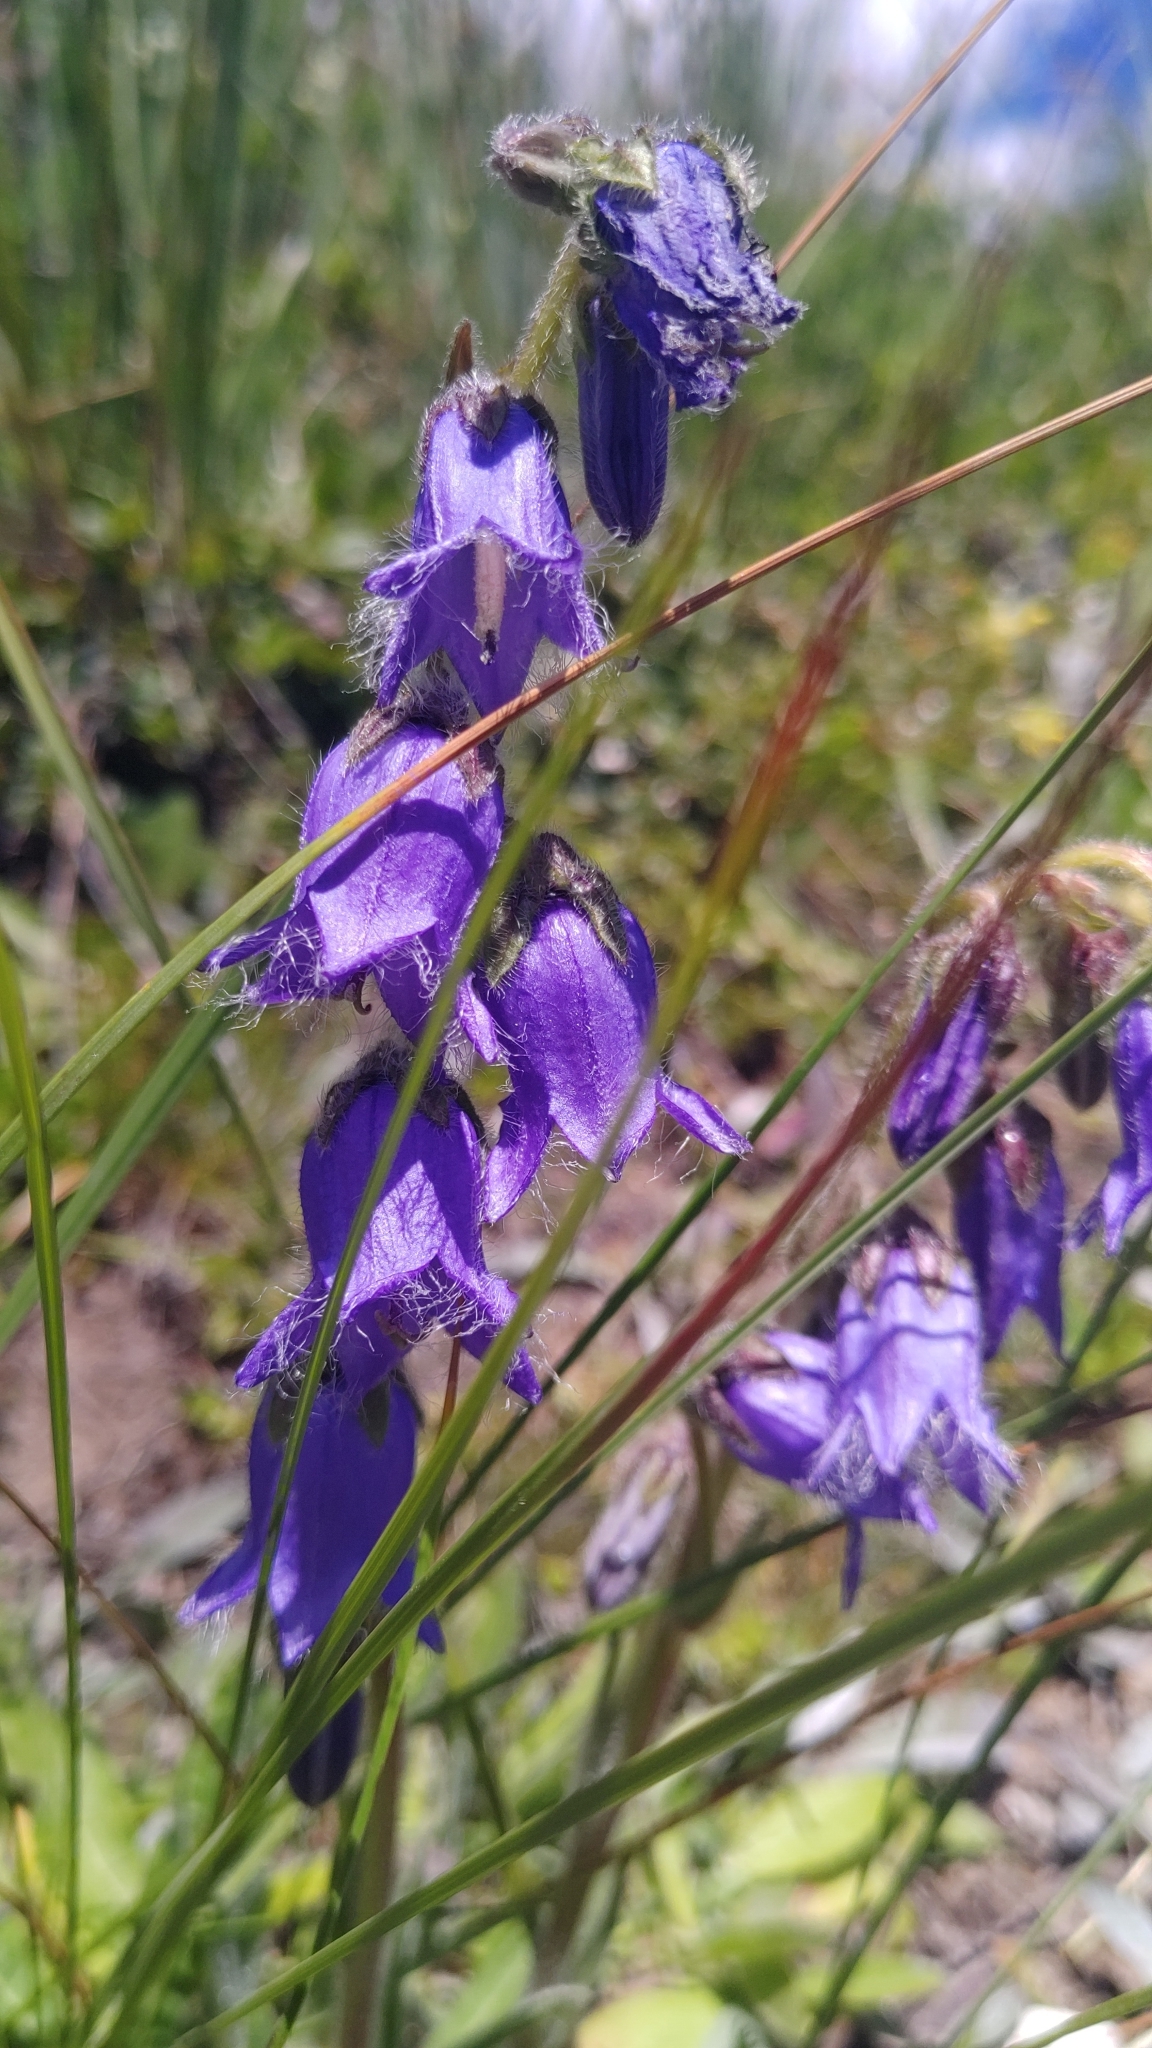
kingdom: Plantae
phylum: Tracheophyta
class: Magnoliopsida
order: Asterales
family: Campanulaceae
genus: Campanula
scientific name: Campanula barbata
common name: Bearded bellflower
